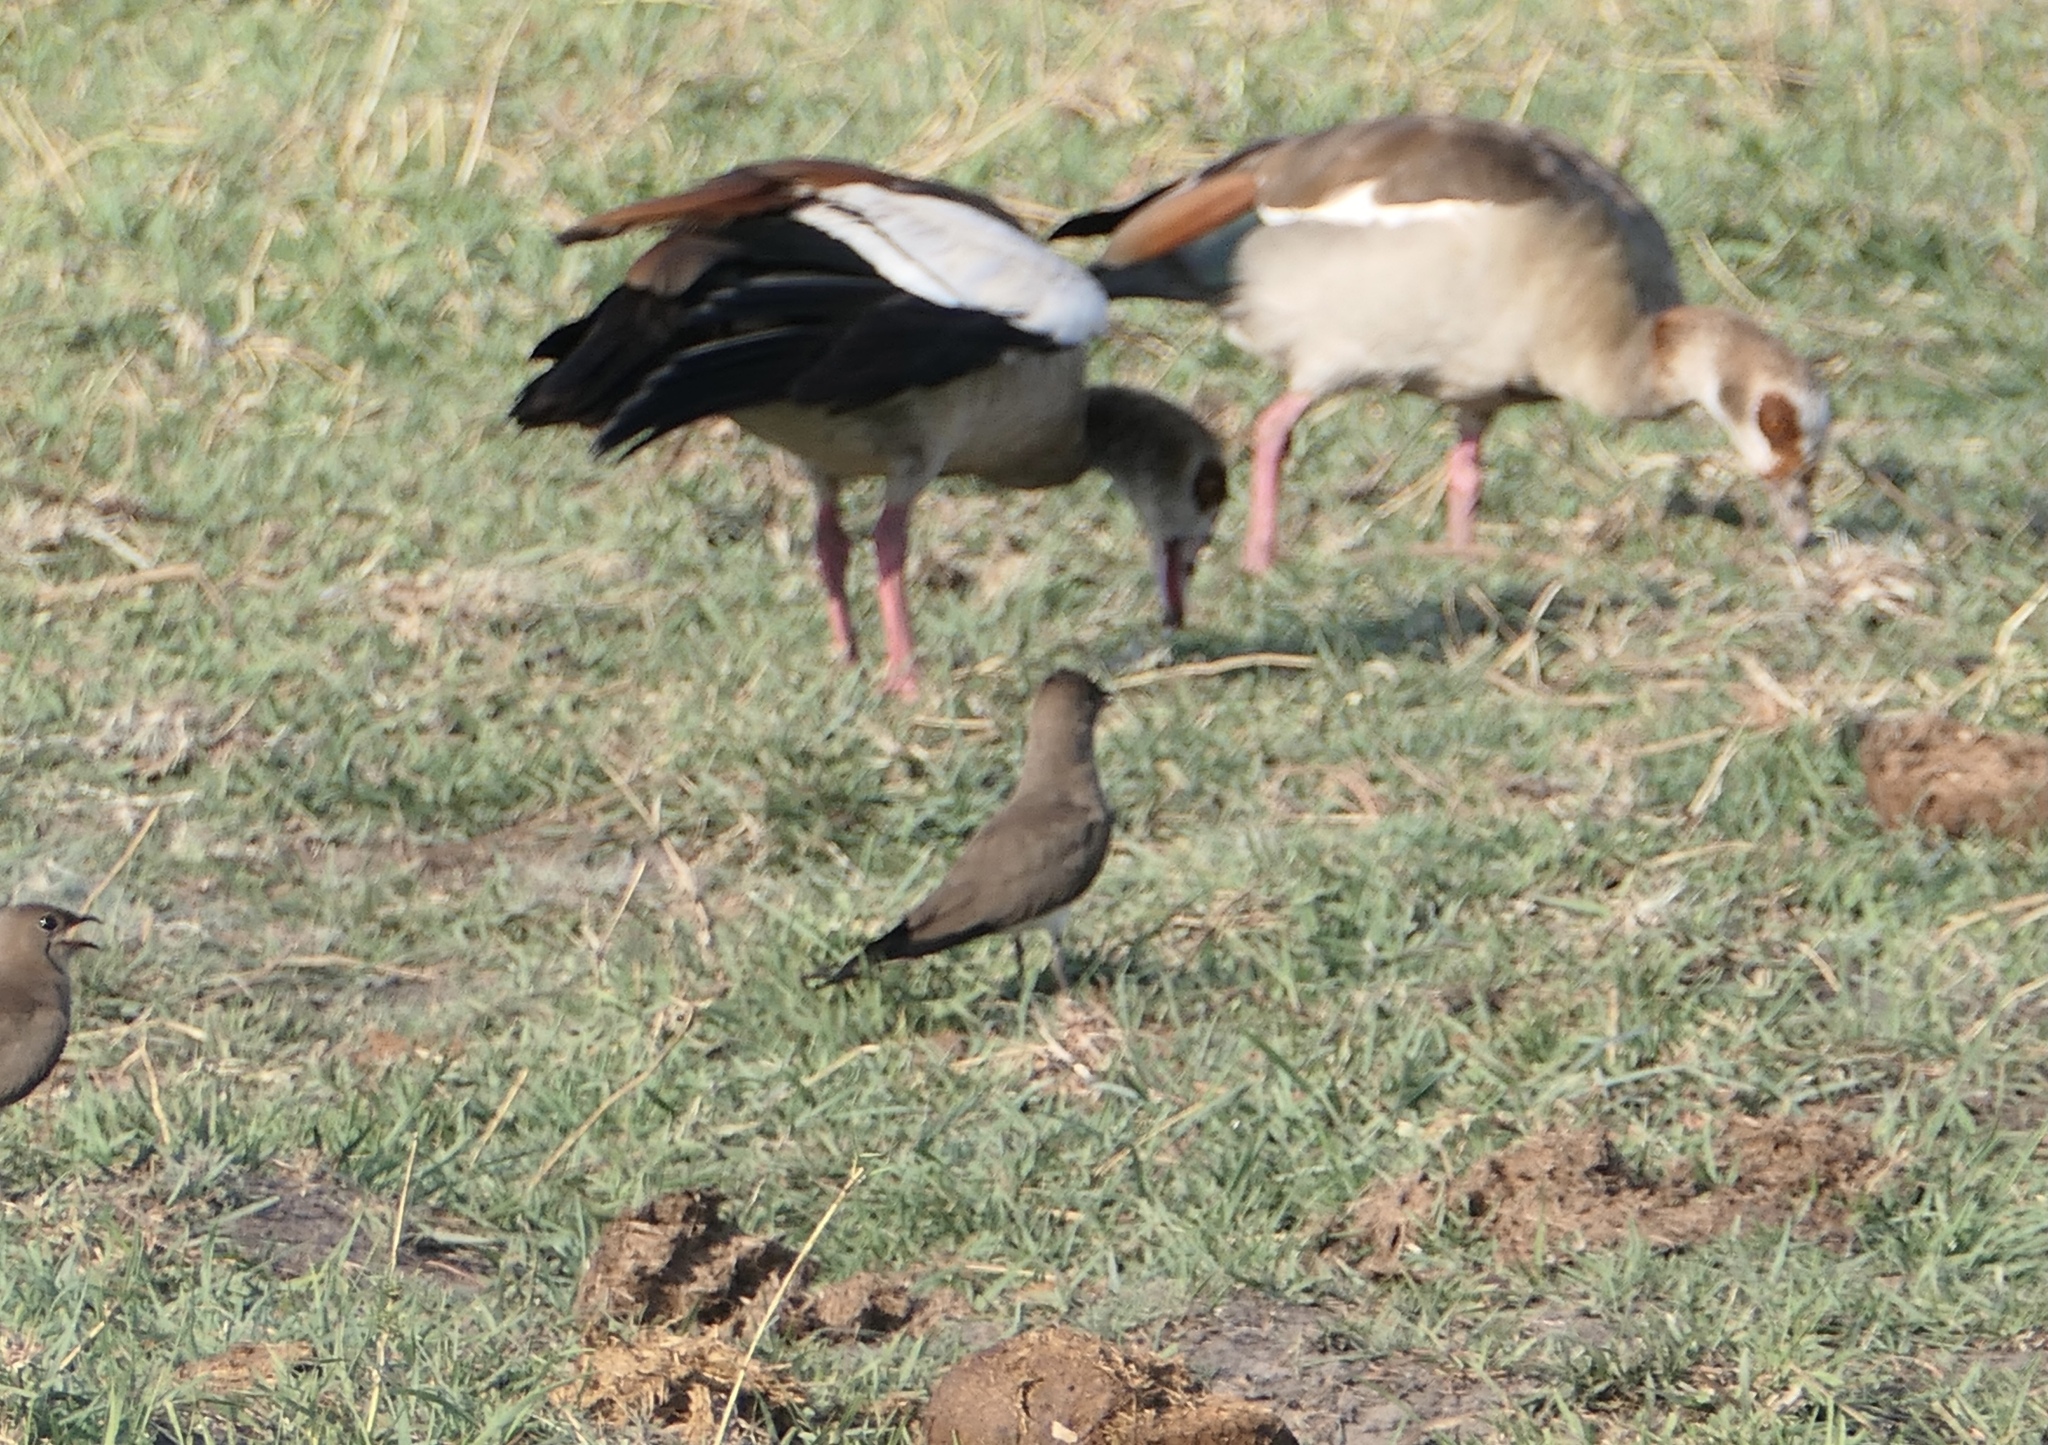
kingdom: Animalia
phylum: Chordata
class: Aves
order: Anseriformes
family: Anatidae
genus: Alopochen
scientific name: Alopochen aegyptiaca
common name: Egyptian goose
